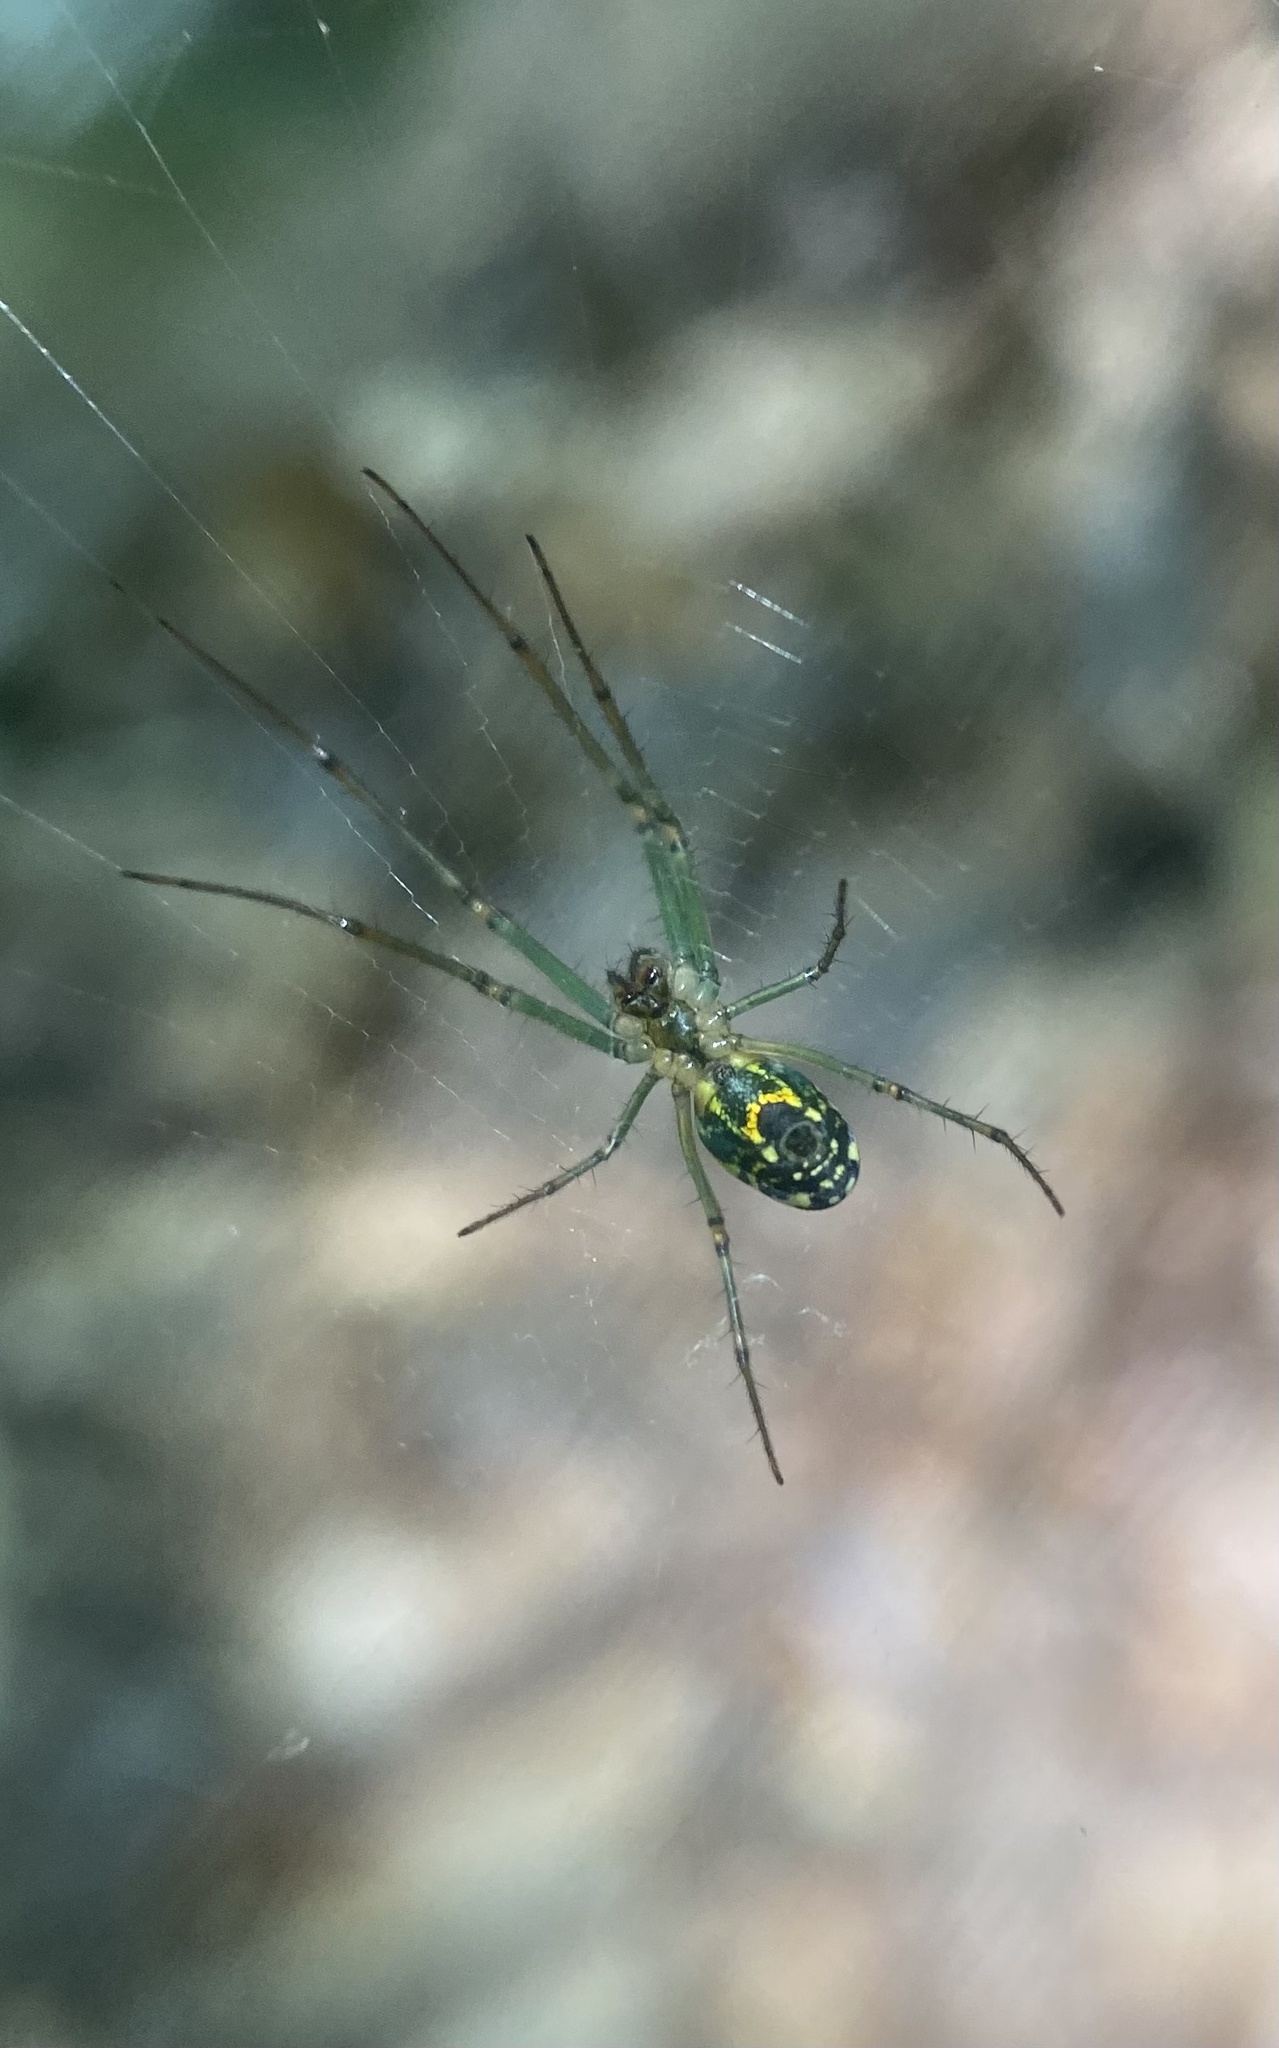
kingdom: Animalia
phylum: Arthropoda
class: Arachnida
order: Araneae
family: Tetragnathidae
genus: Leucauge
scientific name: Leucauge venusta
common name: Longjawed orb weavers
